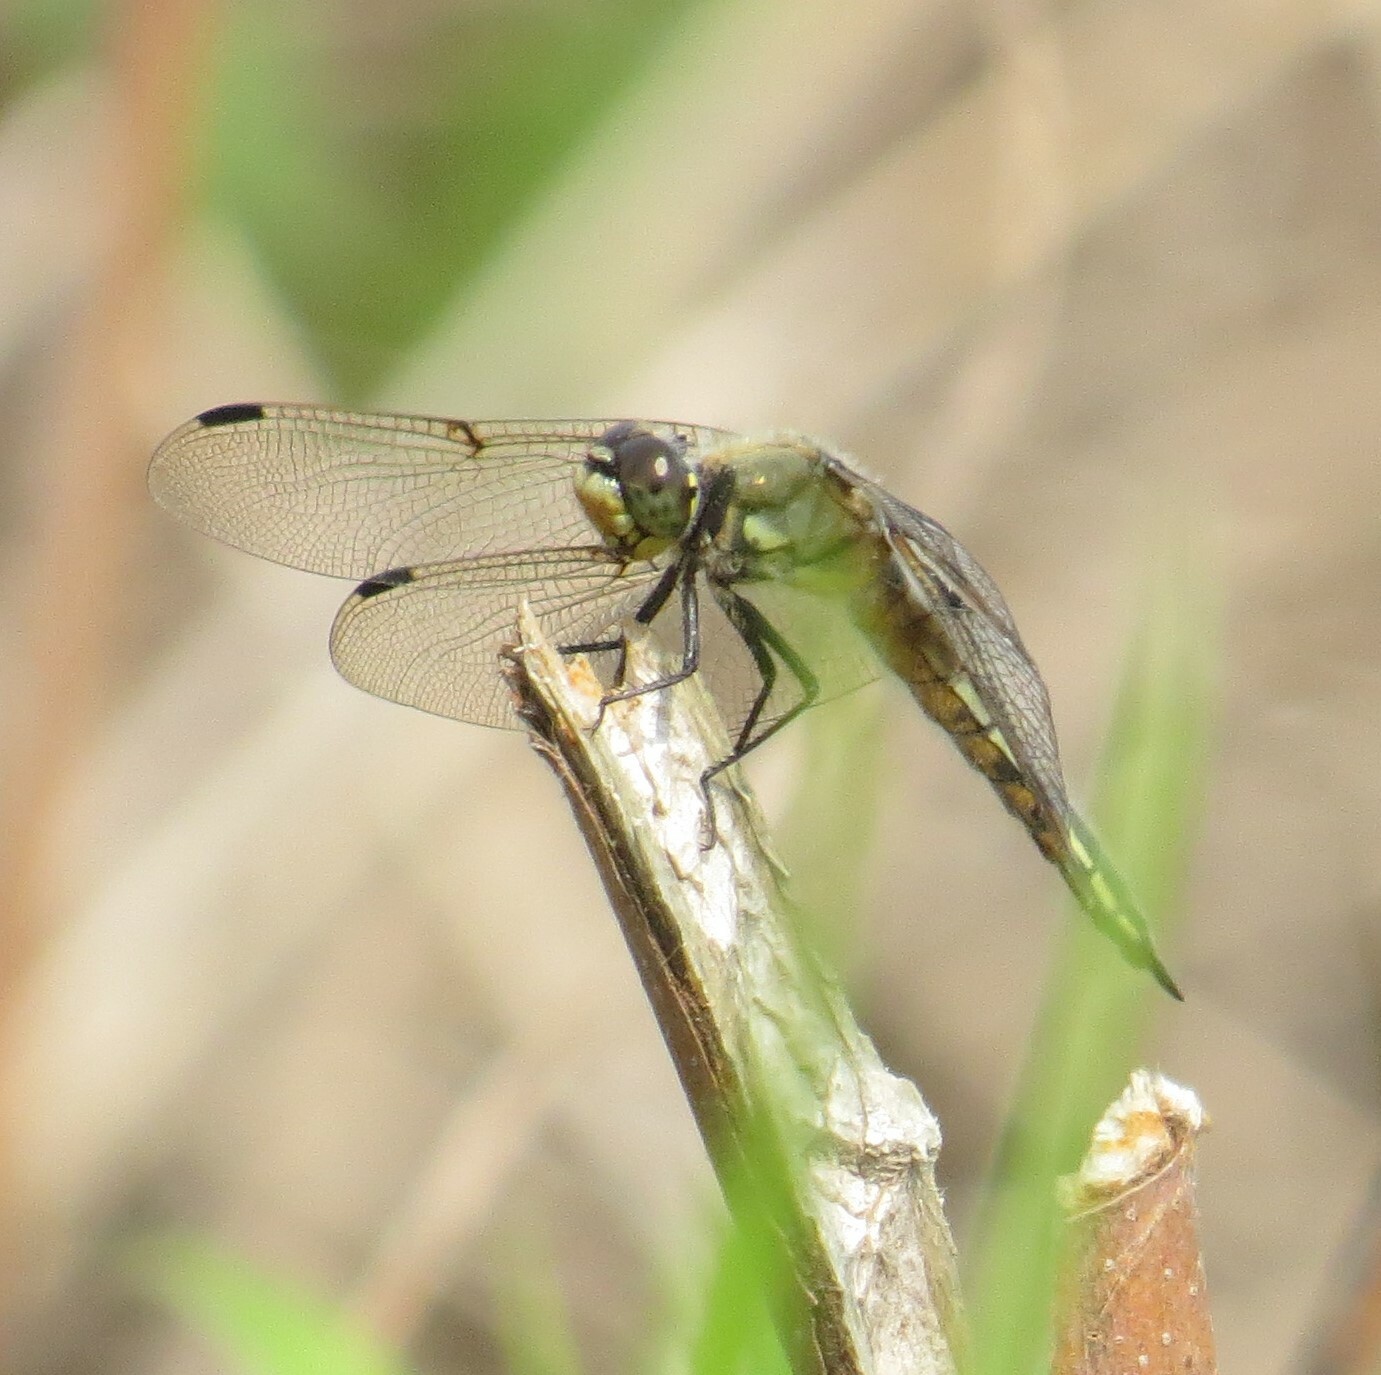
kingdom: Animalia
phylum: Arthropoda
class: Insecta
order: Odonata
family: Libellulidae
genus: Libellula
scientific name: Libellula quadrimaculata
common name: Four-spotted chaser
